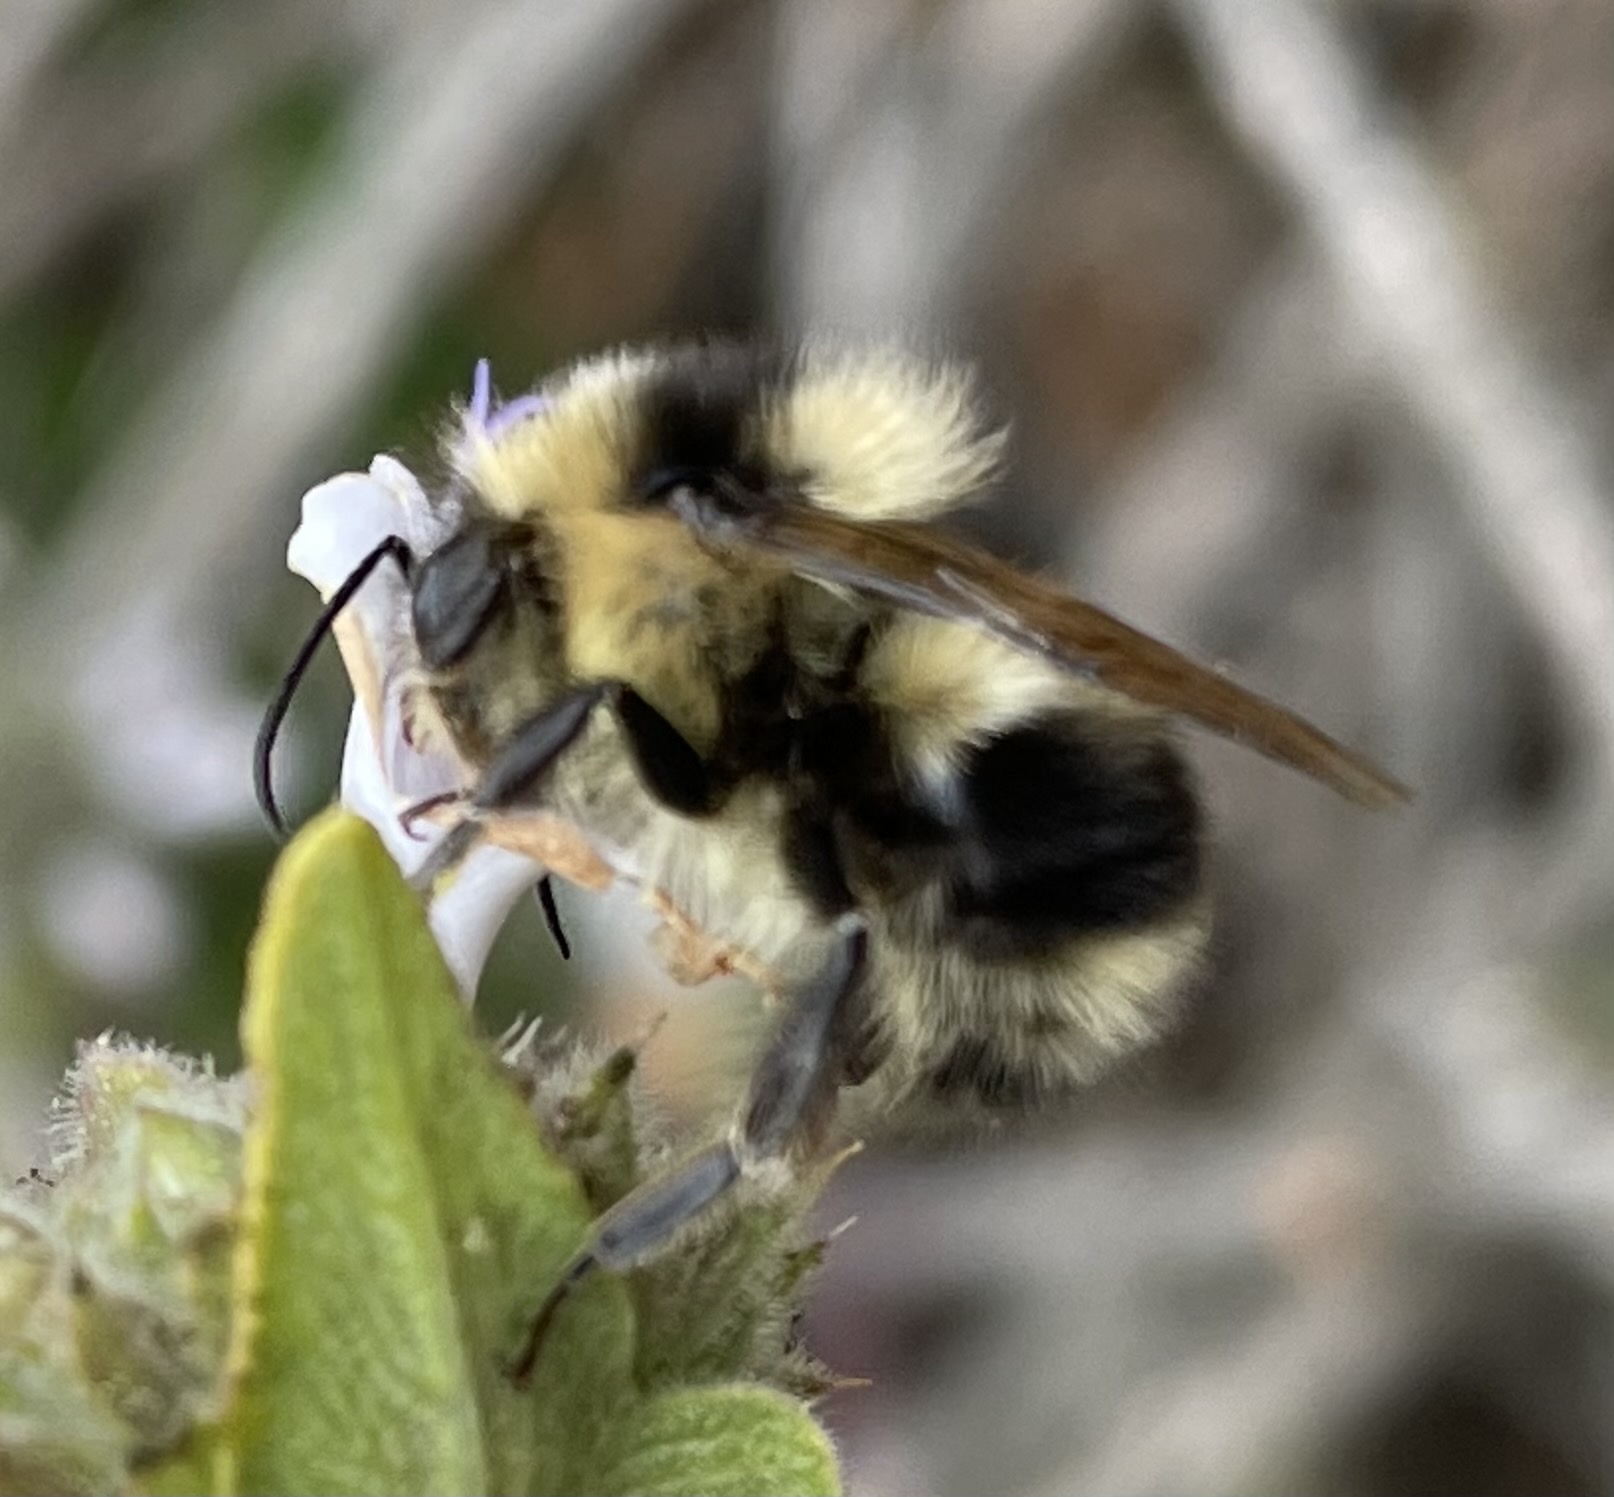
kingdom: Animalia
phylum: Arthropoda
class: Insecta
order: Hymenoptera
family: Apidae
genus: Bombus
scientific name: Bombus melanopygus
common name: Black tail bumble bee
